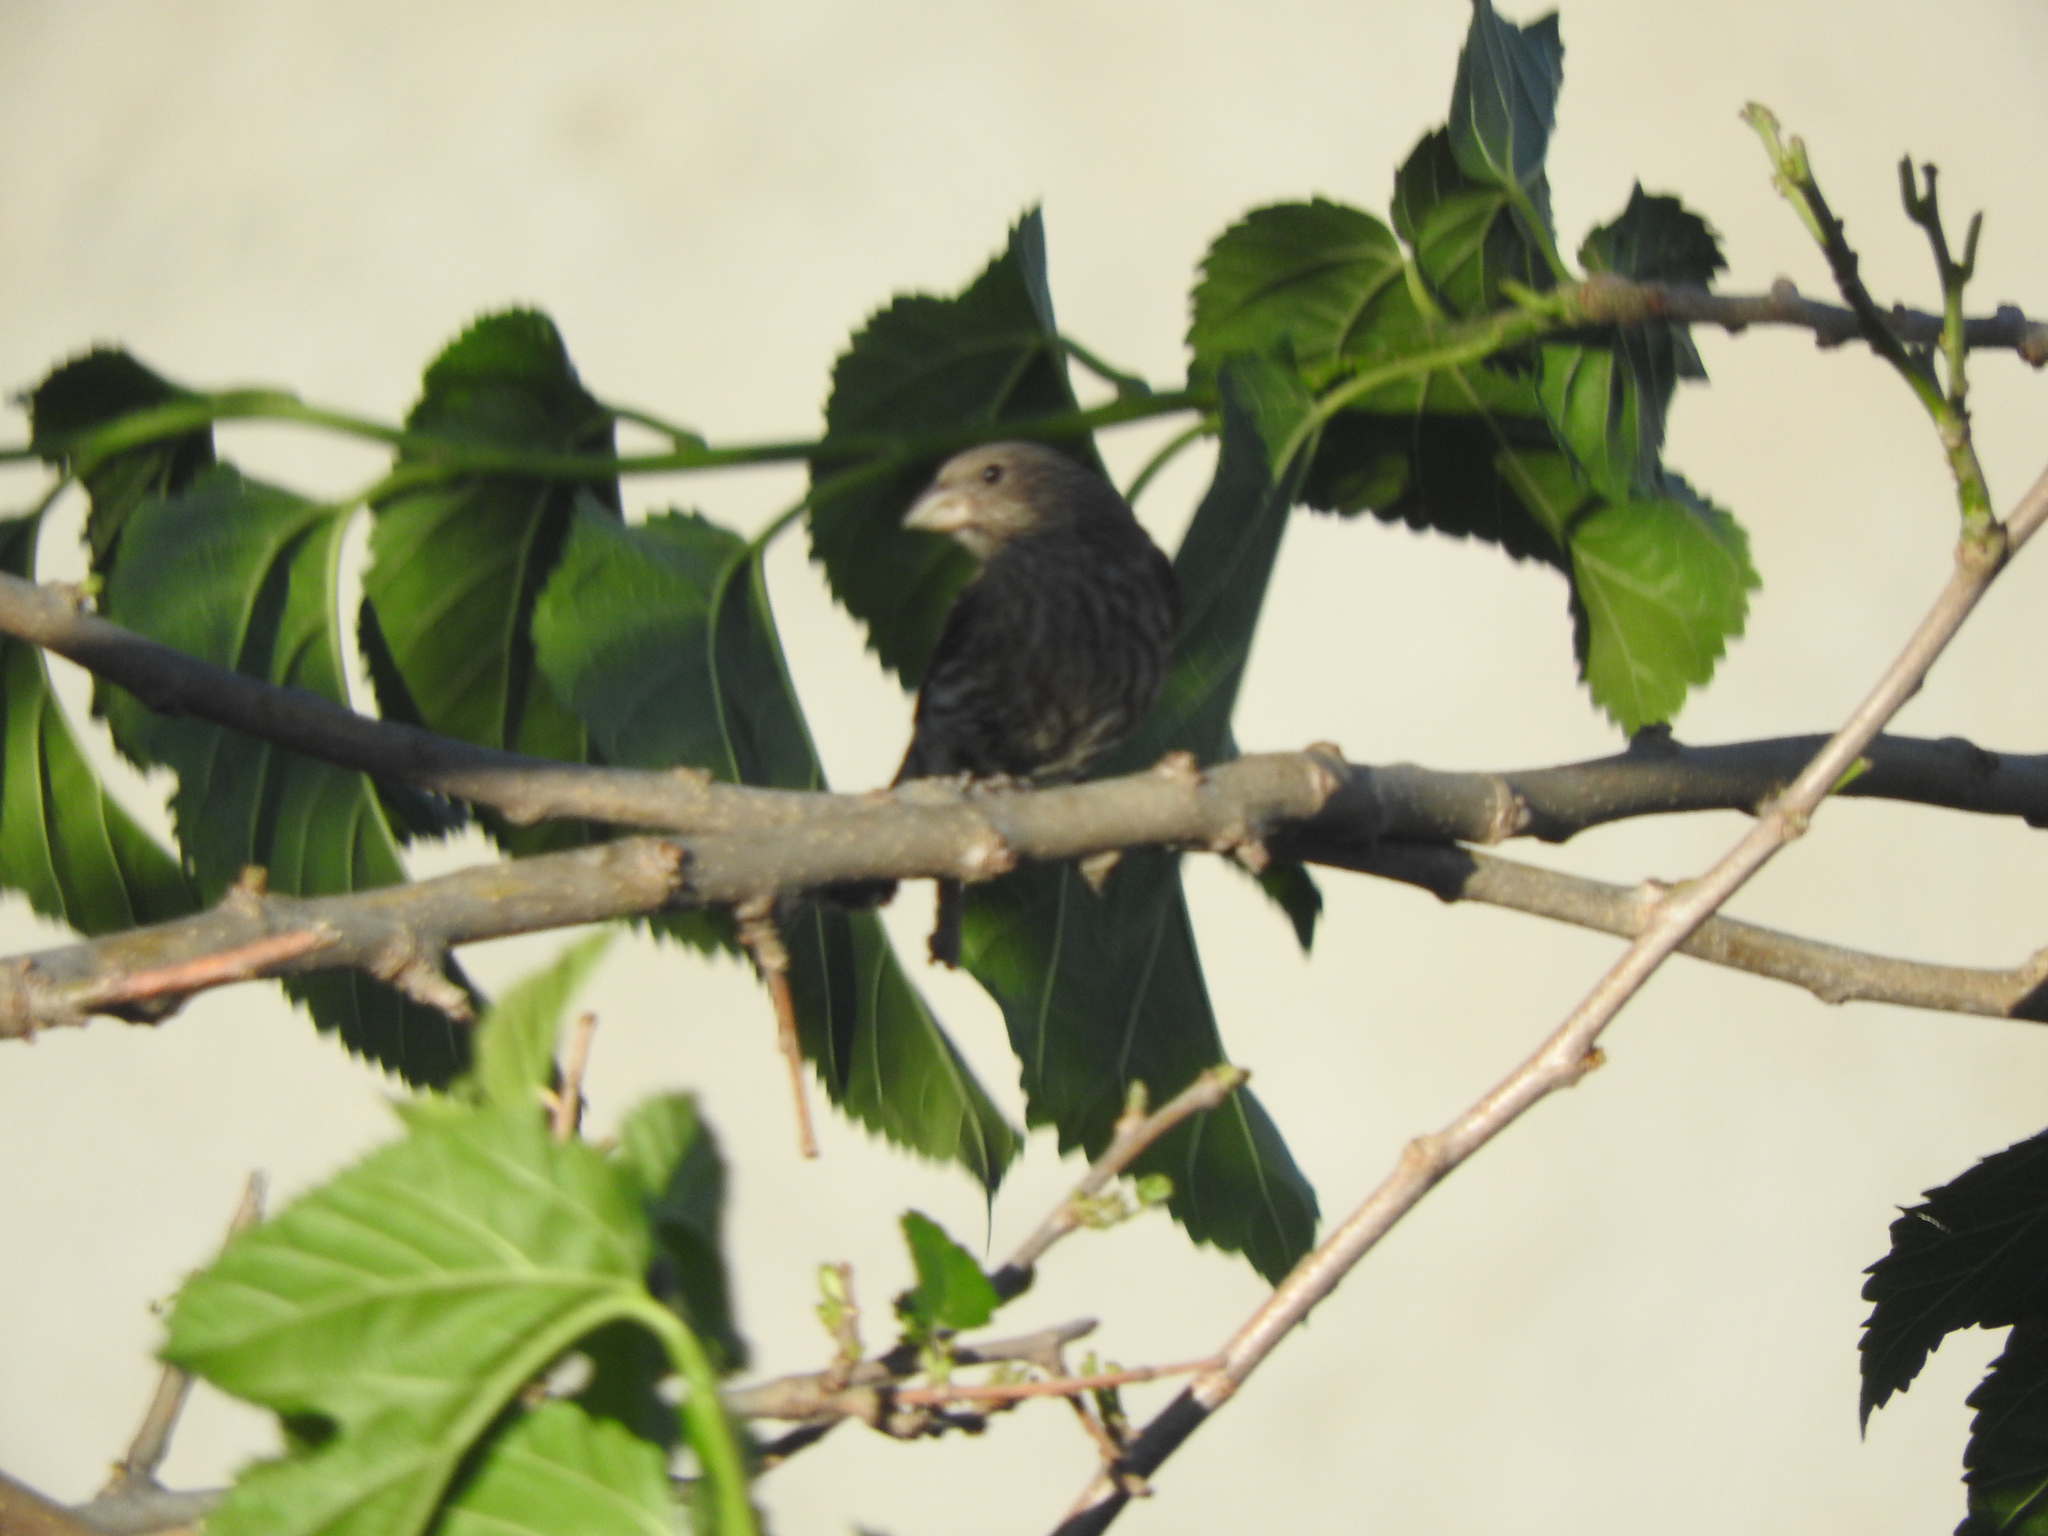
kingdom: Animalia
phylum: Chordata
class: Aves
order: Passeriformes
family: Fringillidae
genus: Haemorhous
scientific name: Haemorhous mexicanus
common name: House finch
